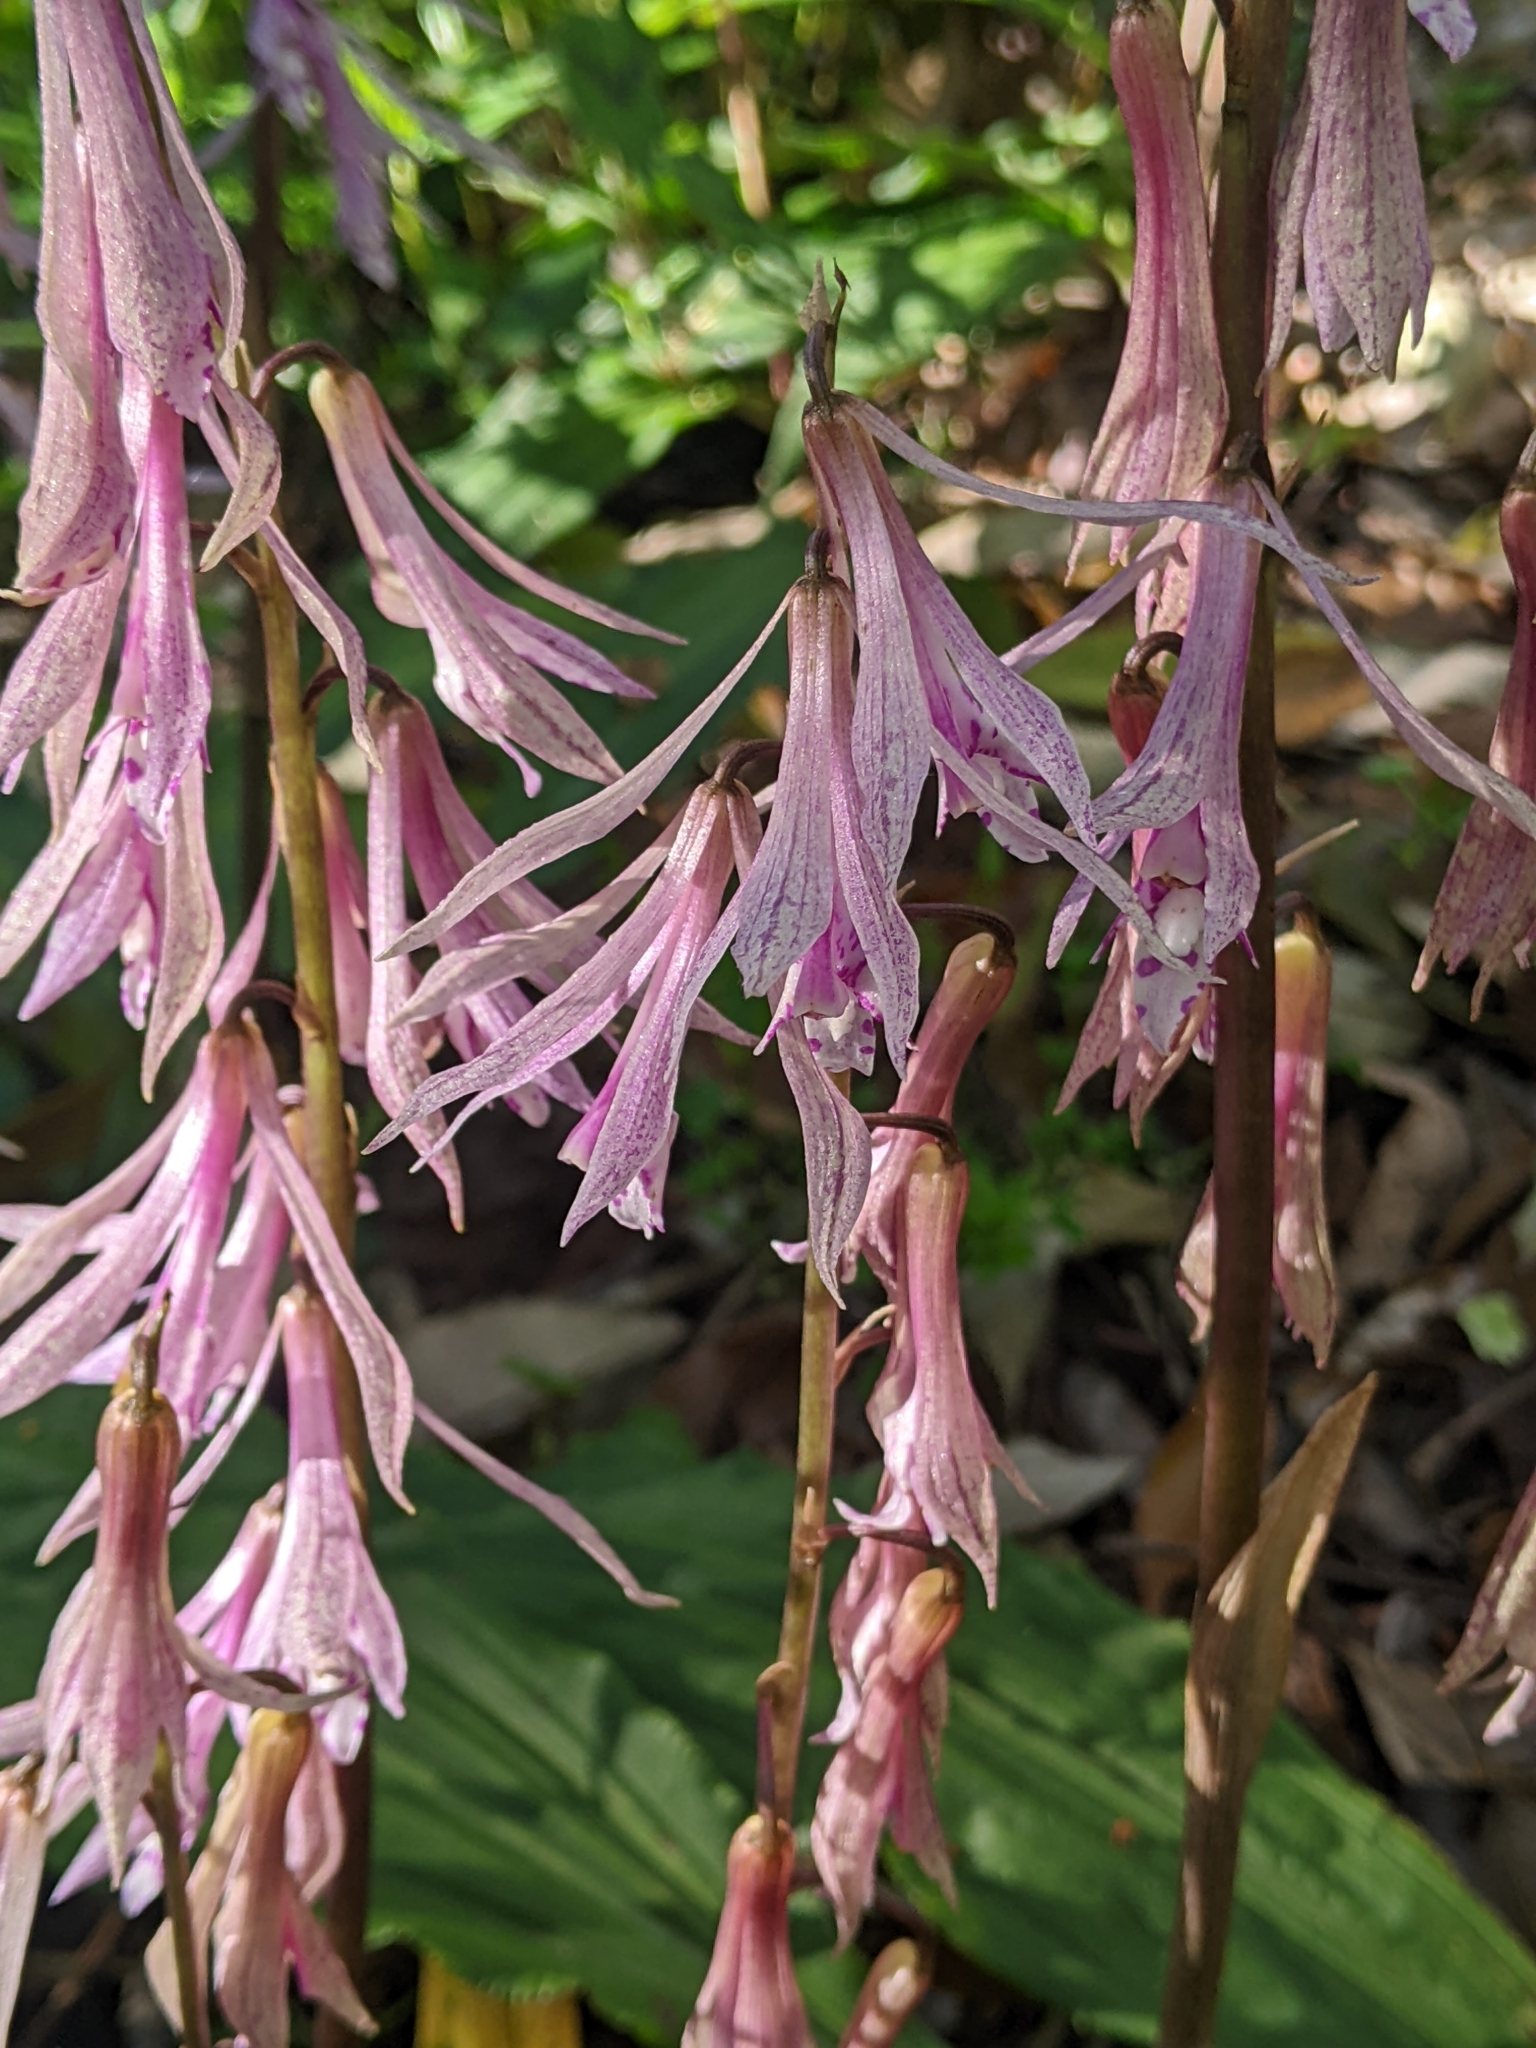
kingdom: Plantae
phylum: Tracheophyta
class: Liliopsida
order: Asparagales
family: Orchidaceae
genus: Cremastra
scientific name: Cremastra appendiculata
